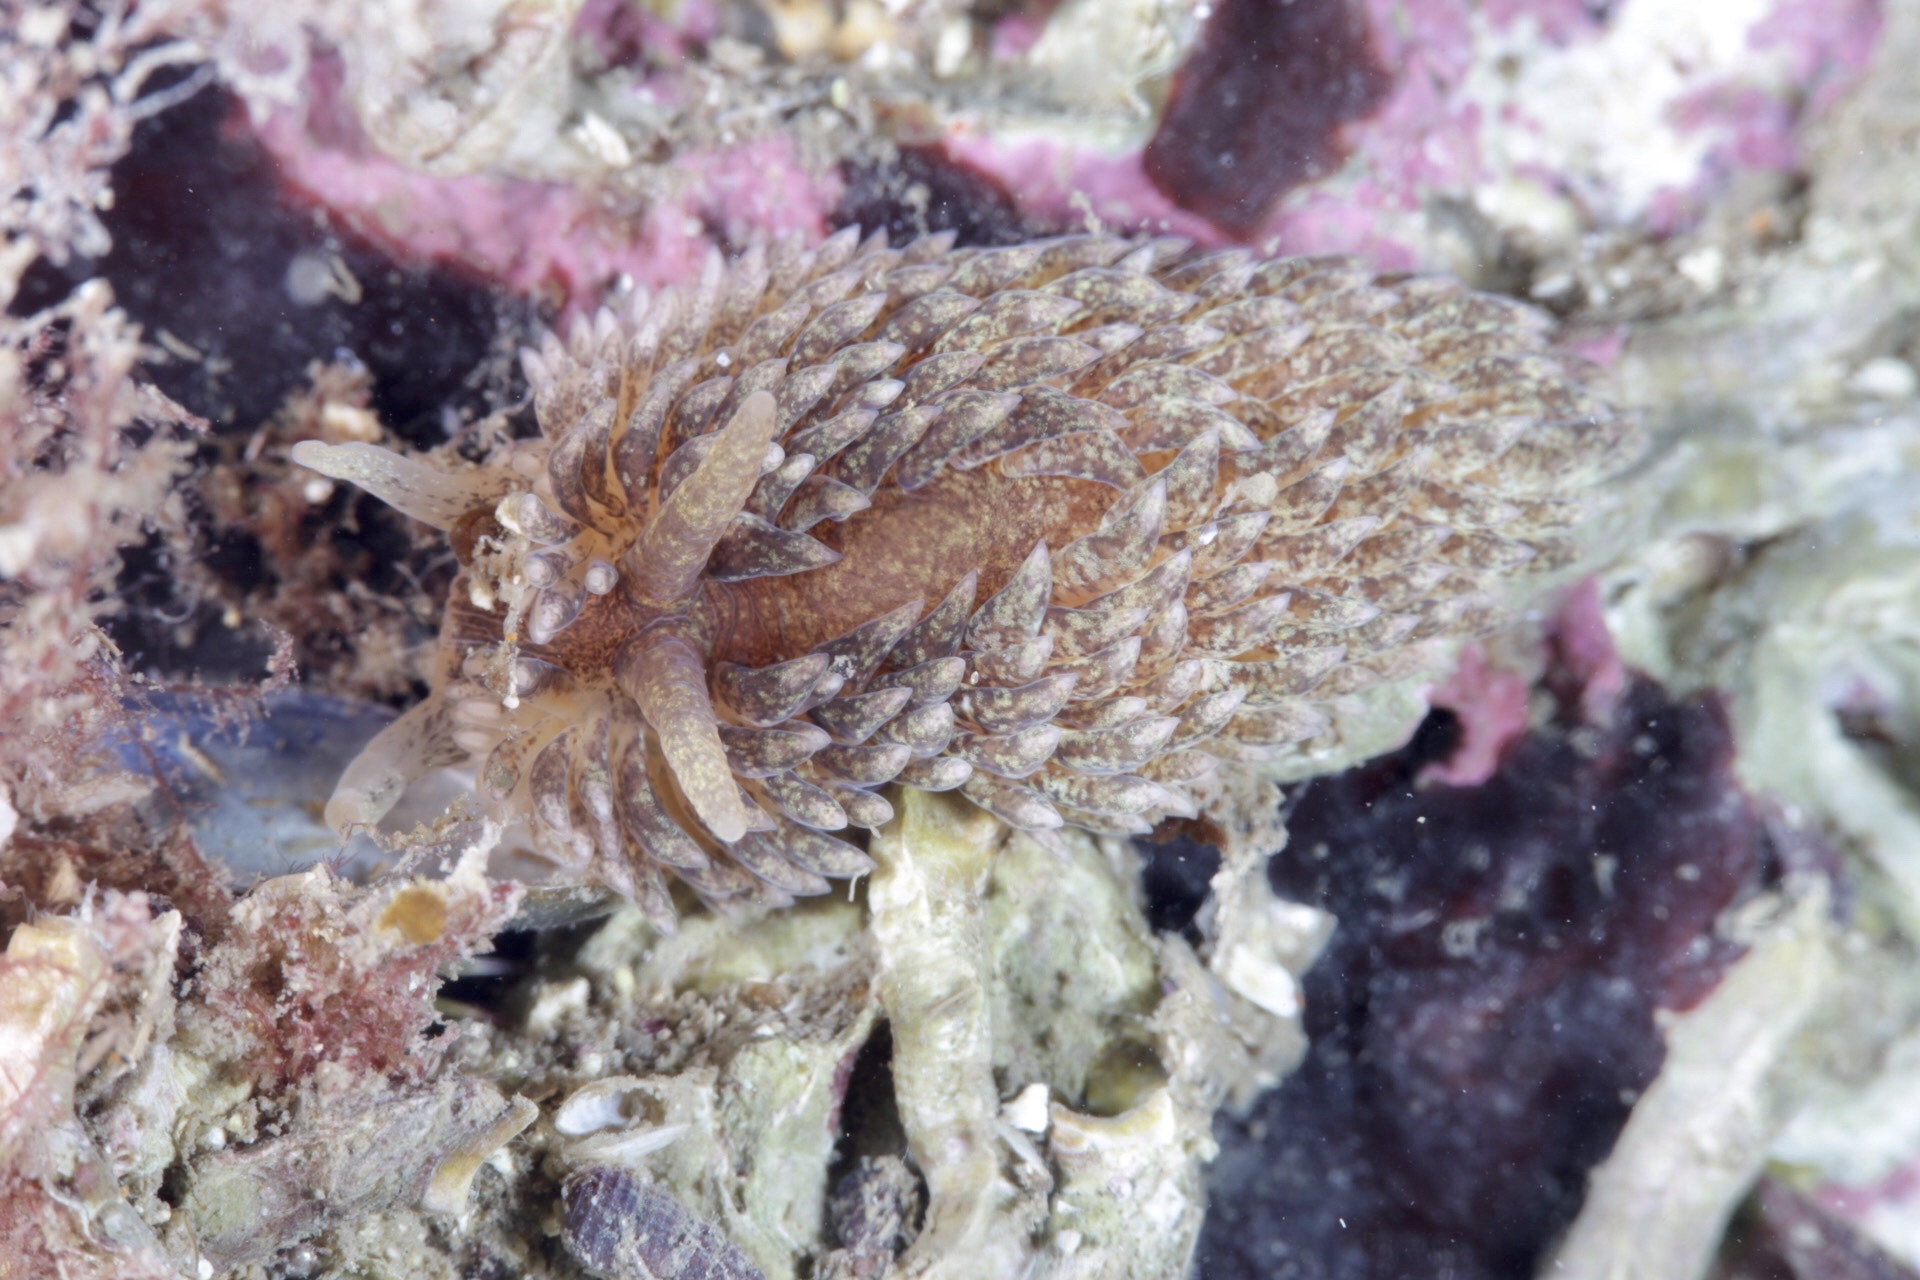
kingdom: Animalia
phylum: Mollusca
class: Gastropoda
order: Nudibranchia
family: Aeolidiidae
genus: Aeolidia
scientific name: Aeolidia papillosa
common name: Common grey sea slug
